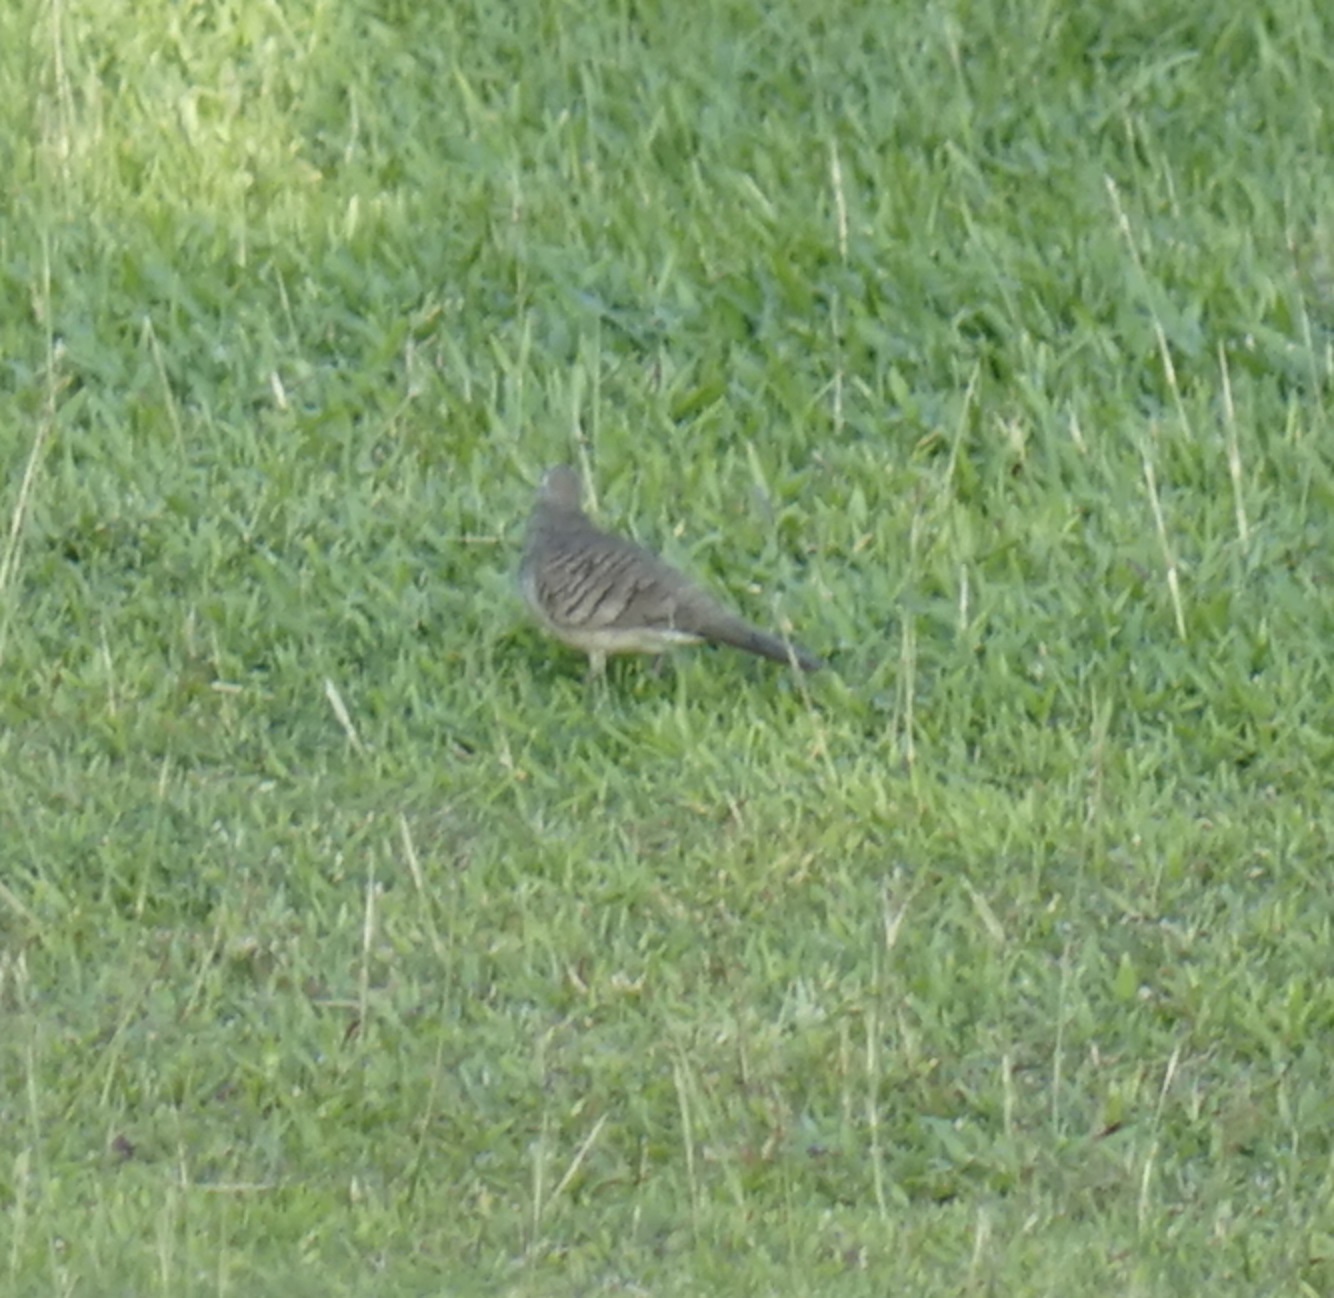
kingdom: Animalia
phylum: Chordata
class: Aves
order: Columbiformes
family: Columbidae
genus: Geopelia
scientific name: Geopelia striata
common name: Zebra dove
